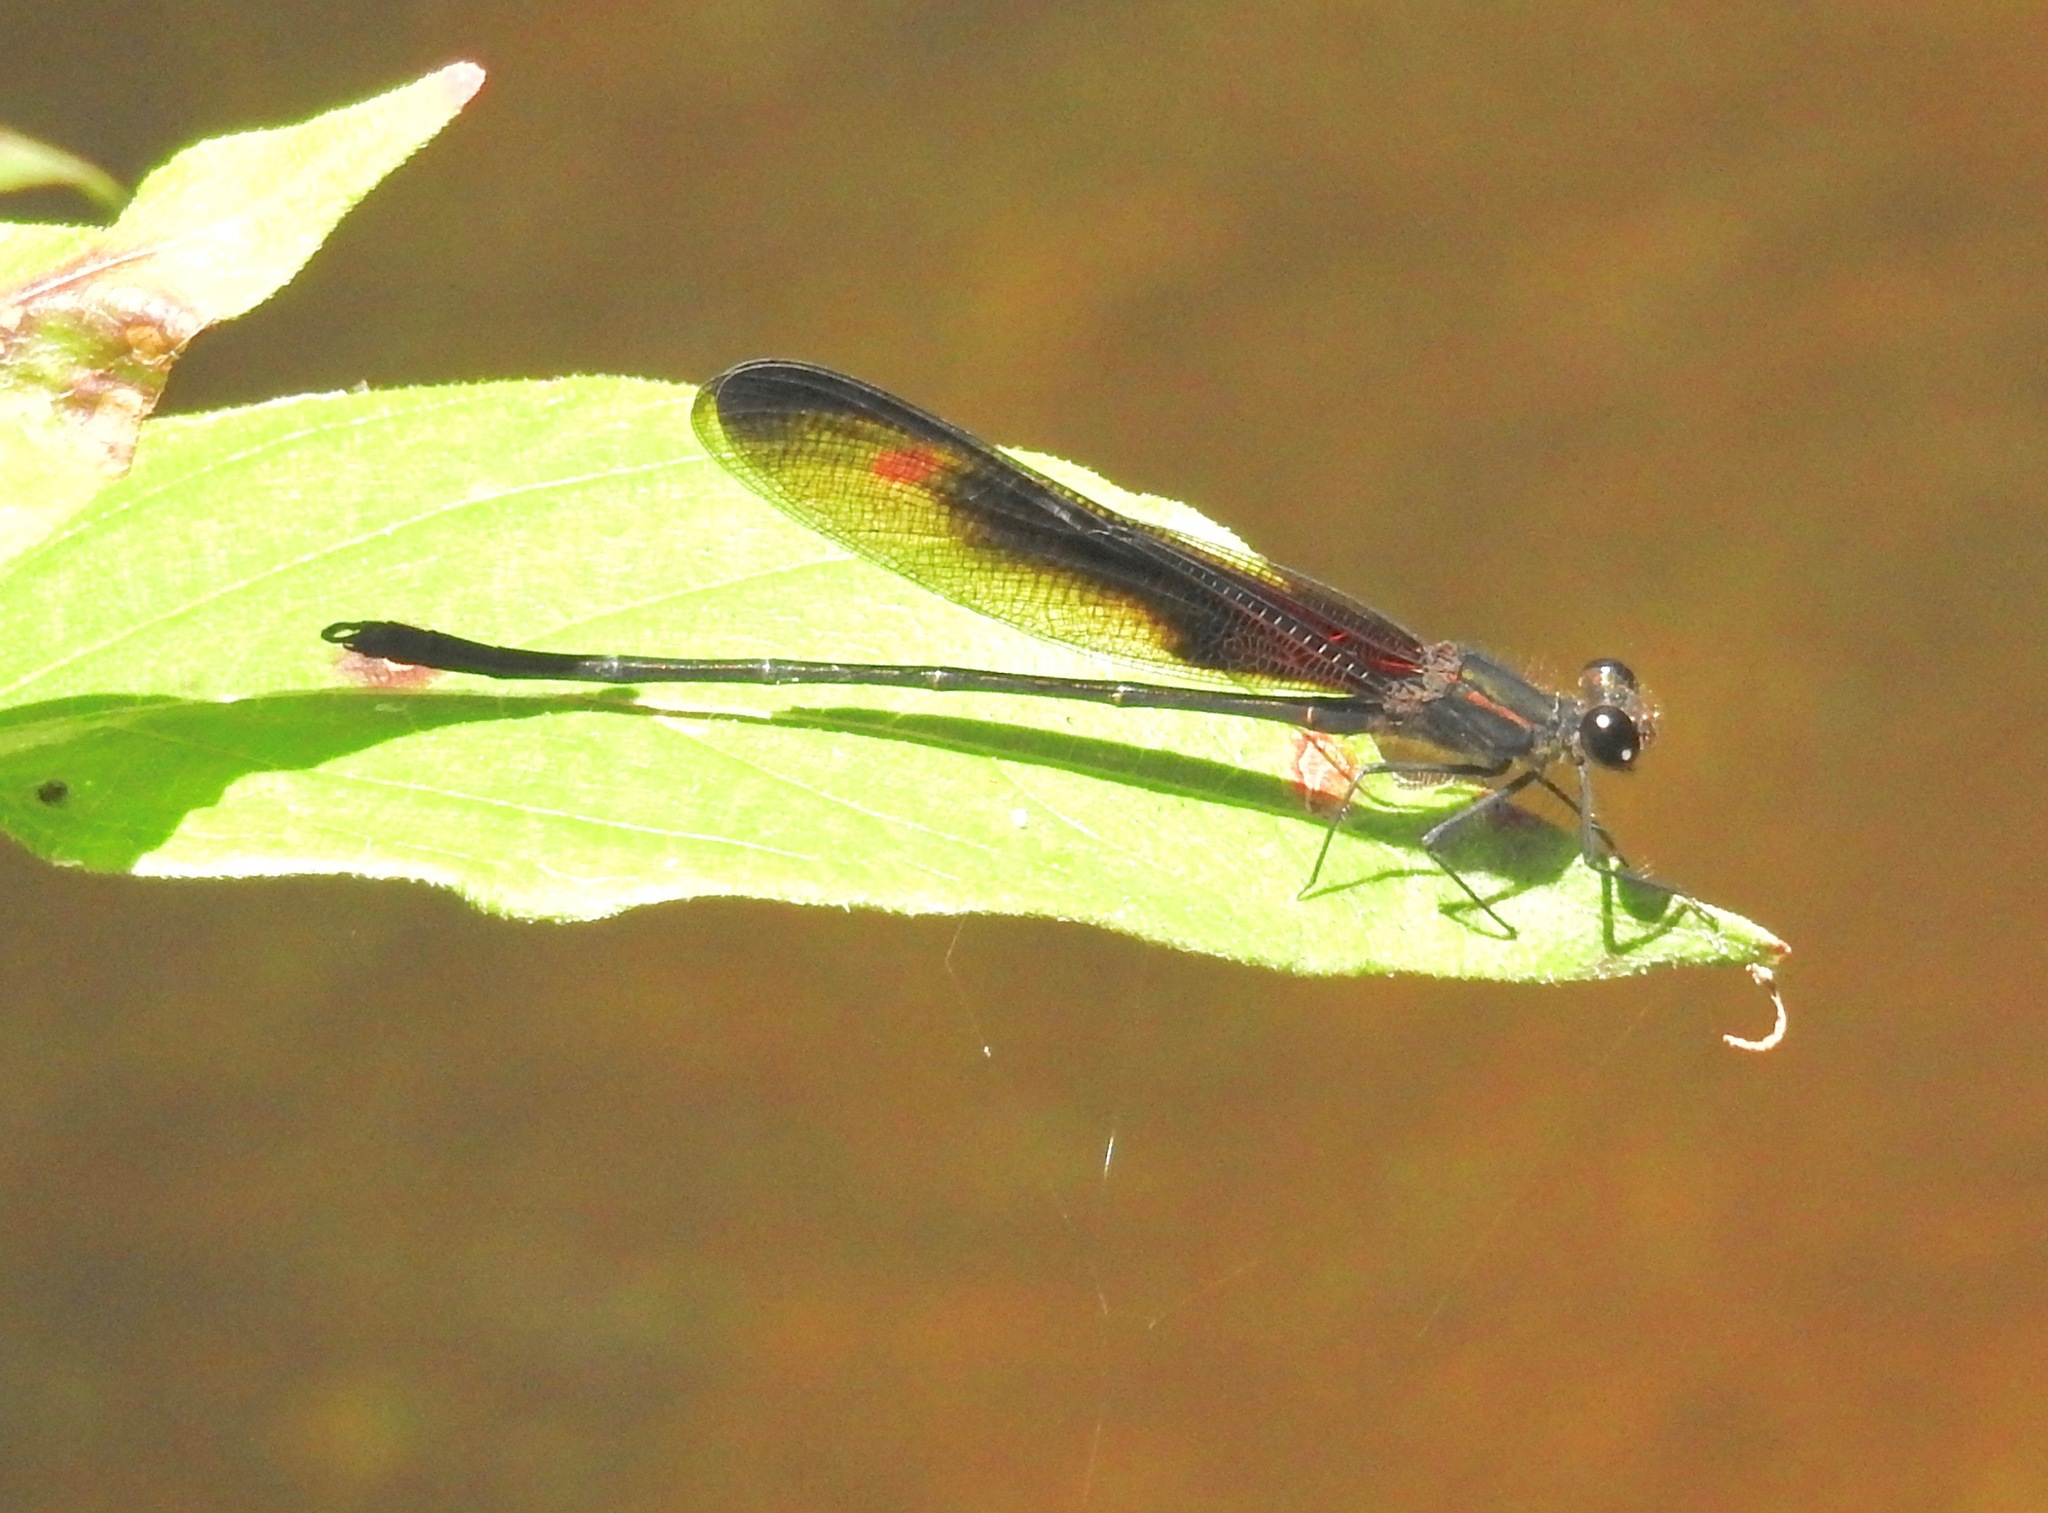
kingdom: Animalia
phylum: Arthropoda
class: Insecta
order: Odonata
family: Calopterygidae
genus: Hetaerina
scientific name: Hetaerina titia
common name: Smoky rubyspot
